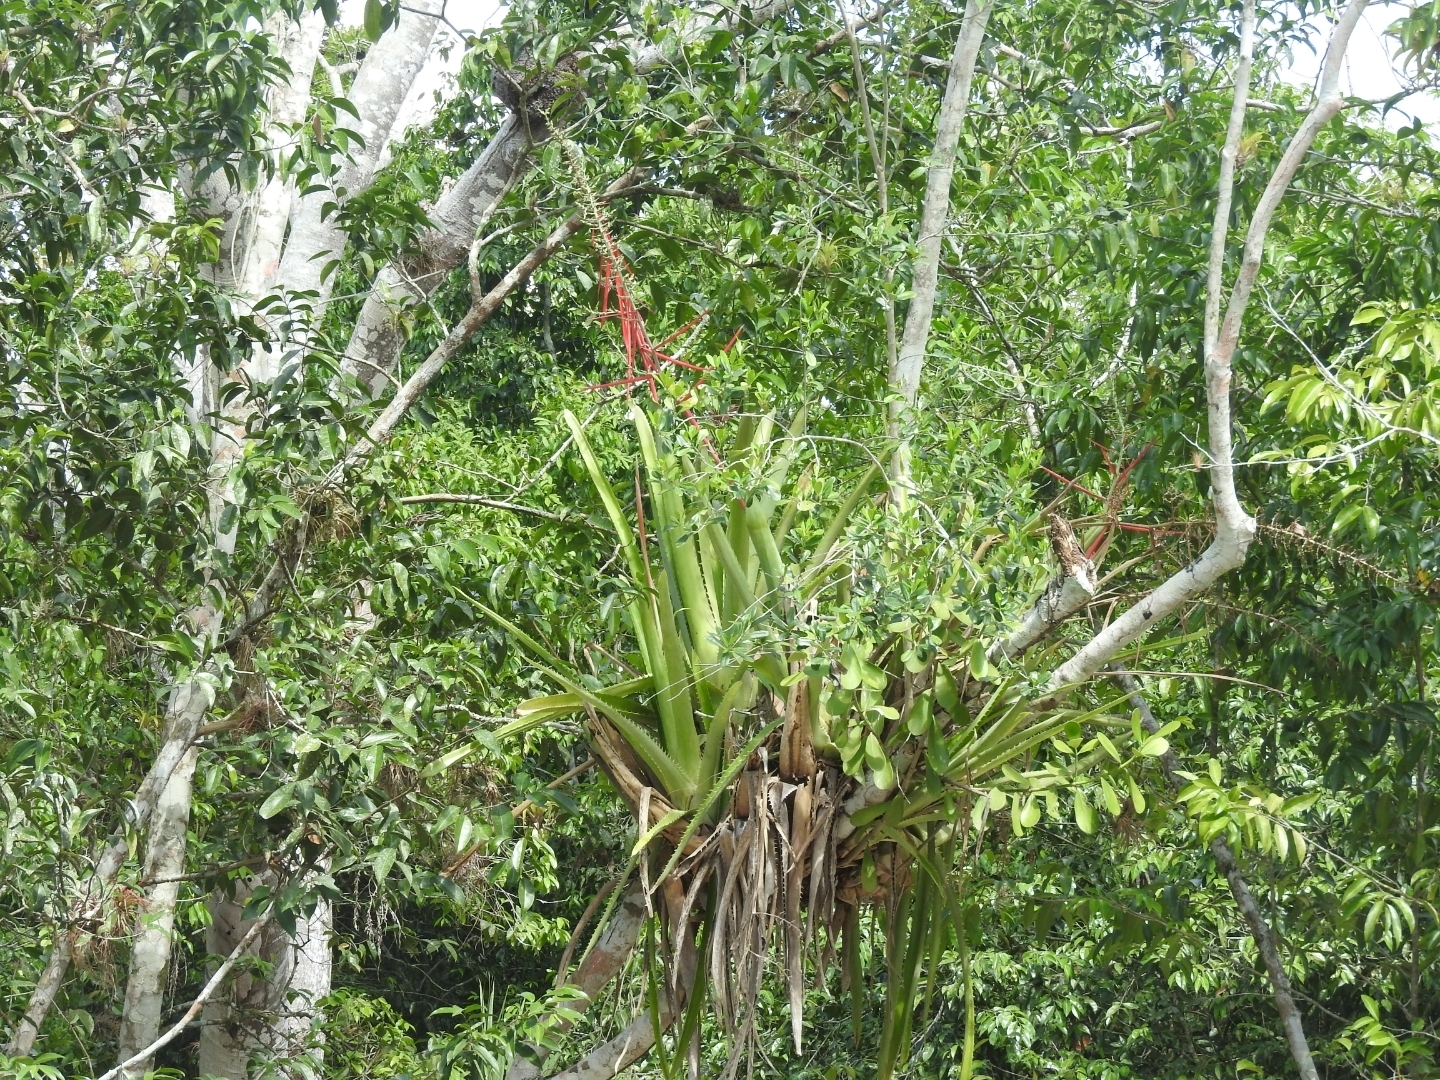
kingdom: Plantae
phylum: Tracheophyta
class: Liliopsida
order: Poales
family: Bromeliaceae
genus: Aechmea
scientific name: Aechmea bracteata
